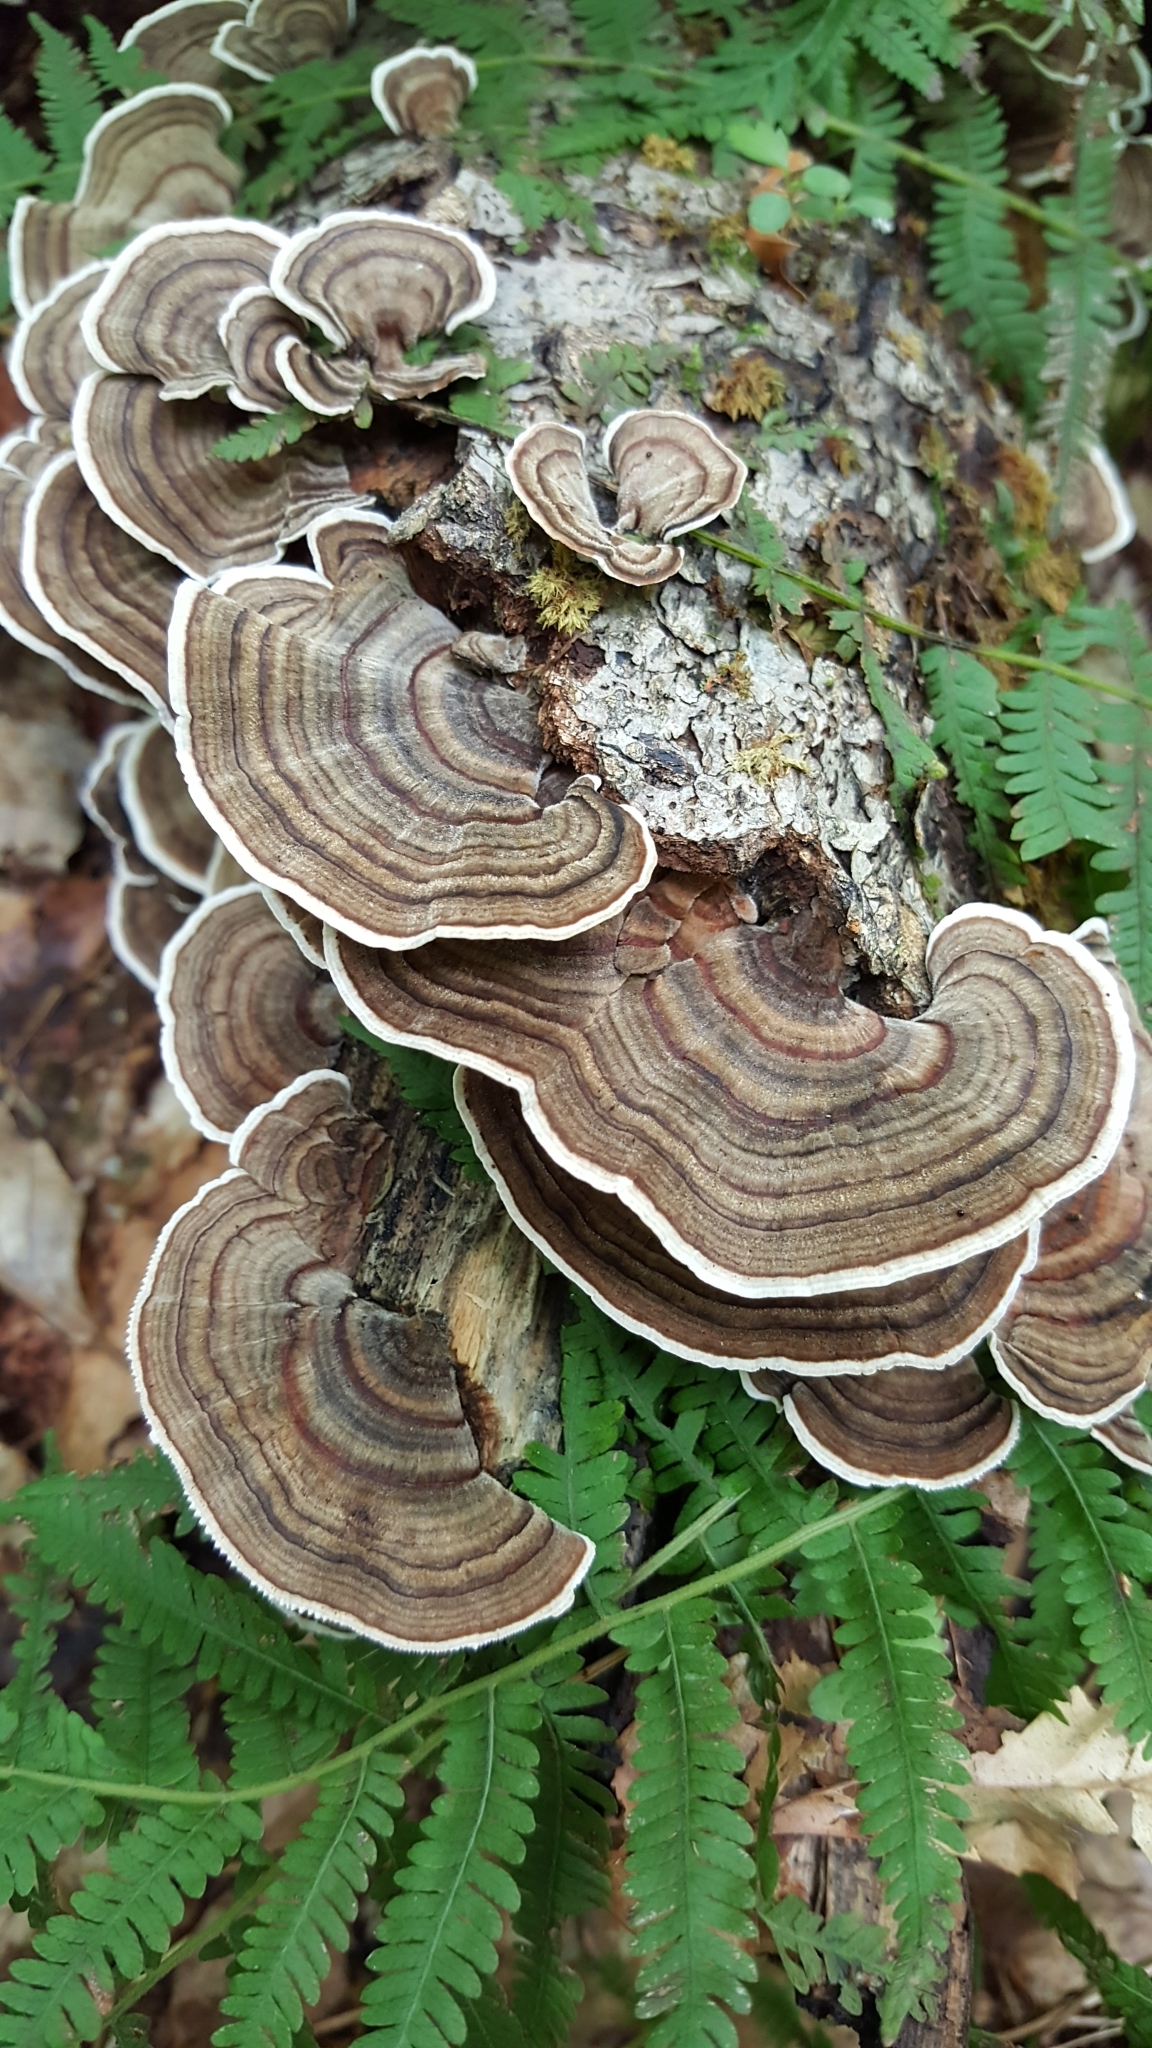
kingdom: Fungi
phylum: Basidiomycota
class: Agaricomycetes
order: Polyporales
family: Polyporaceae
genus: Trametes
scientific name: Trametes versicolor
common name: Turkeytail
